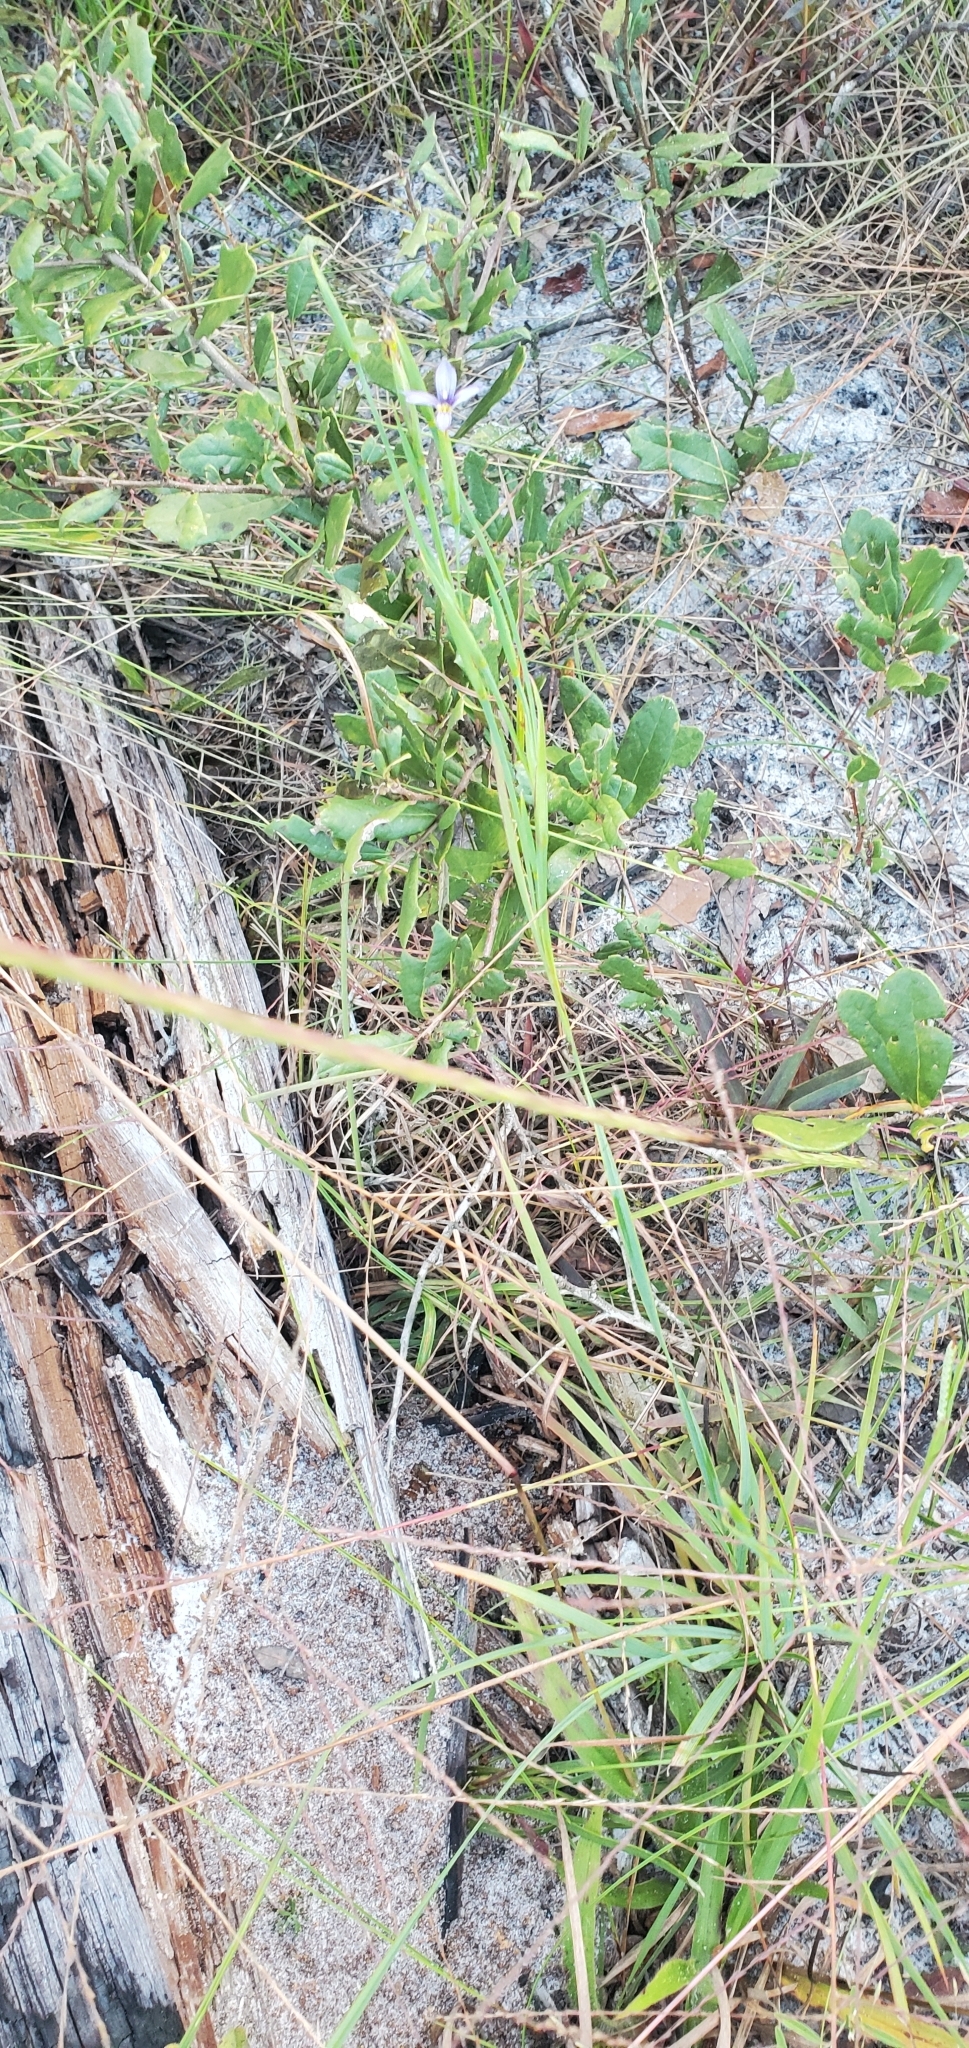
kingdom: Plantae
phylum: Tracheophyta
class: Liliopsida
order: Asparagales
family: Iridaceae
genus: Sisyrinchium
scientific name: Sisyrinchium xerophyllum
